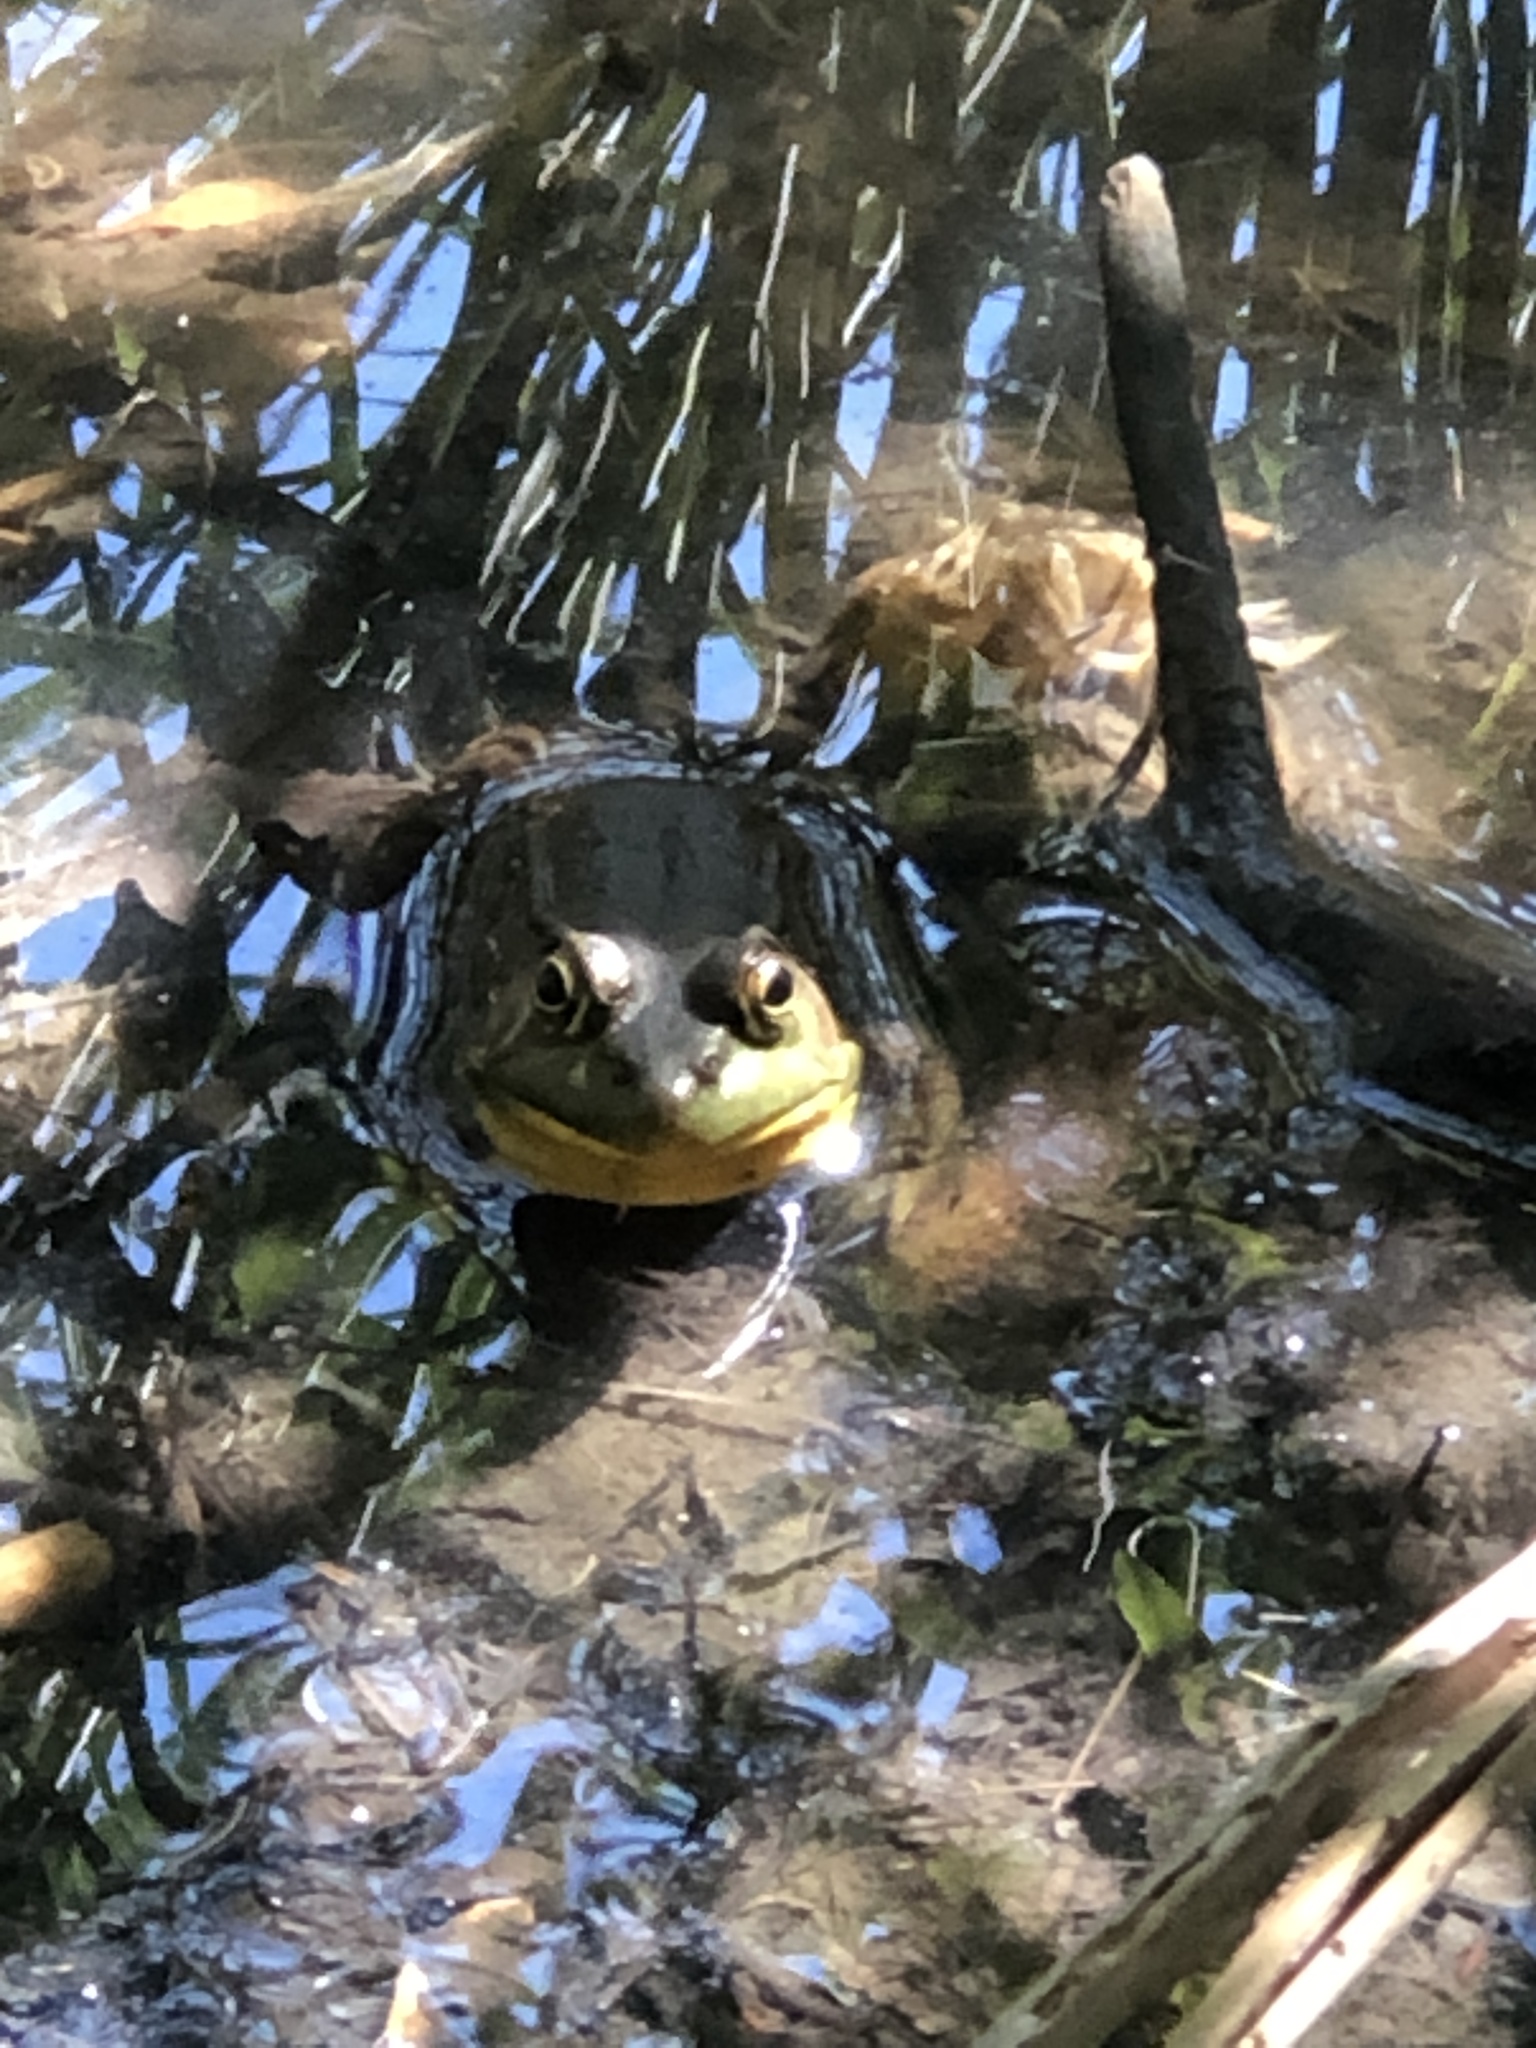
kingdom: Animalia
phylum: Chordata
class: Amphibia
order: Anura
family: Ranidae
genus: Lithobates
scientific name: Lithobates clamitans
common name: Green frog
